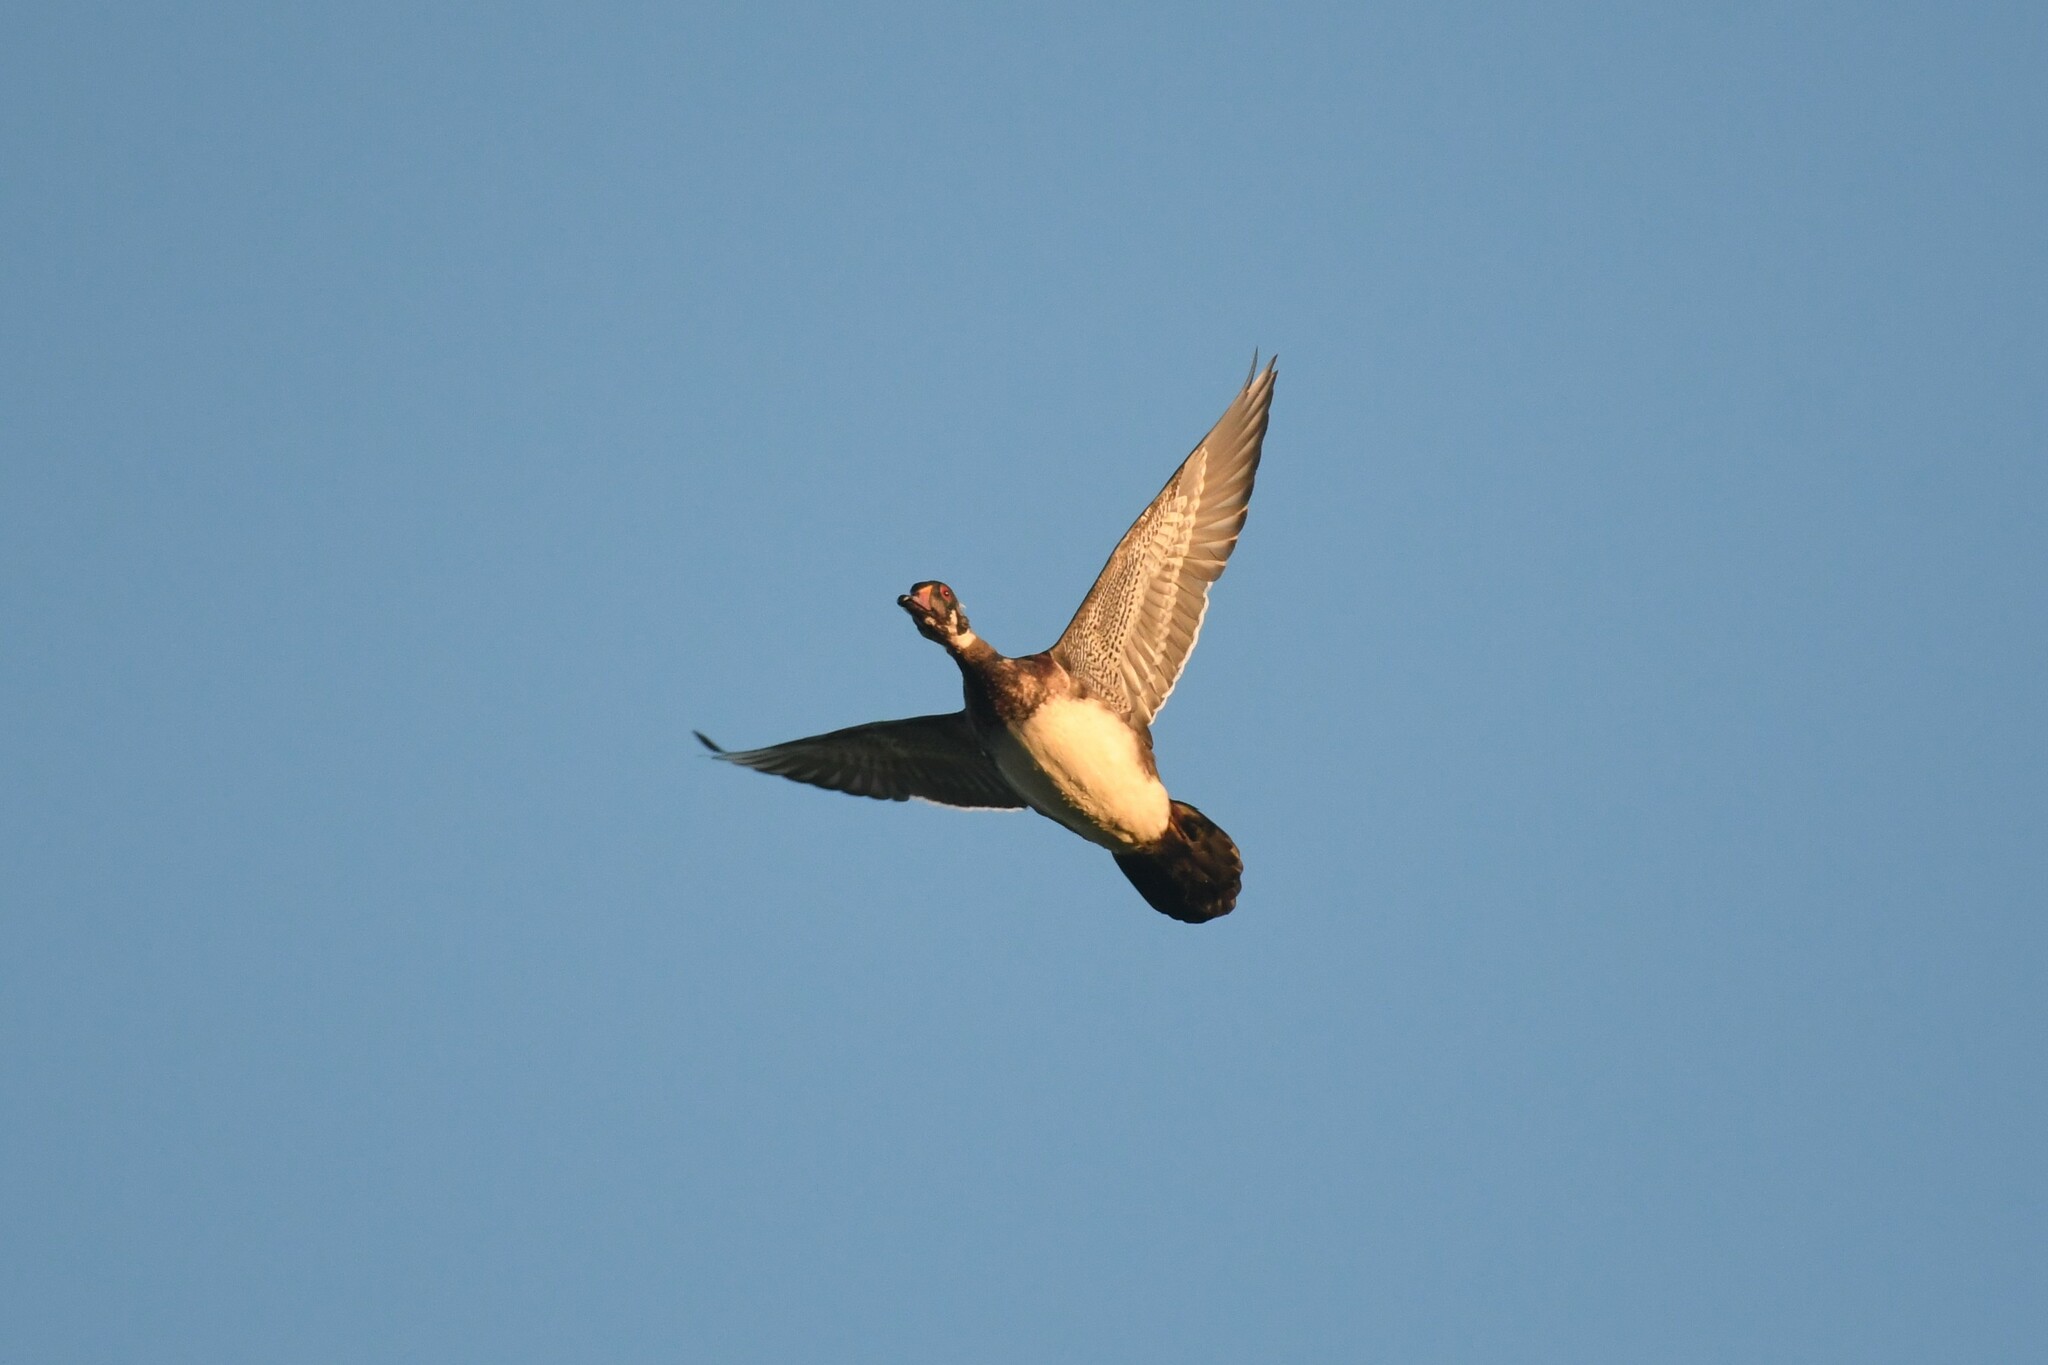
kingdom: Animalia
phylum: Chordata
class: Aves
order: Anseriformes
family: Anatidae
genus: Aix
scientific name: Aix sponsa
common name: Wood duck
